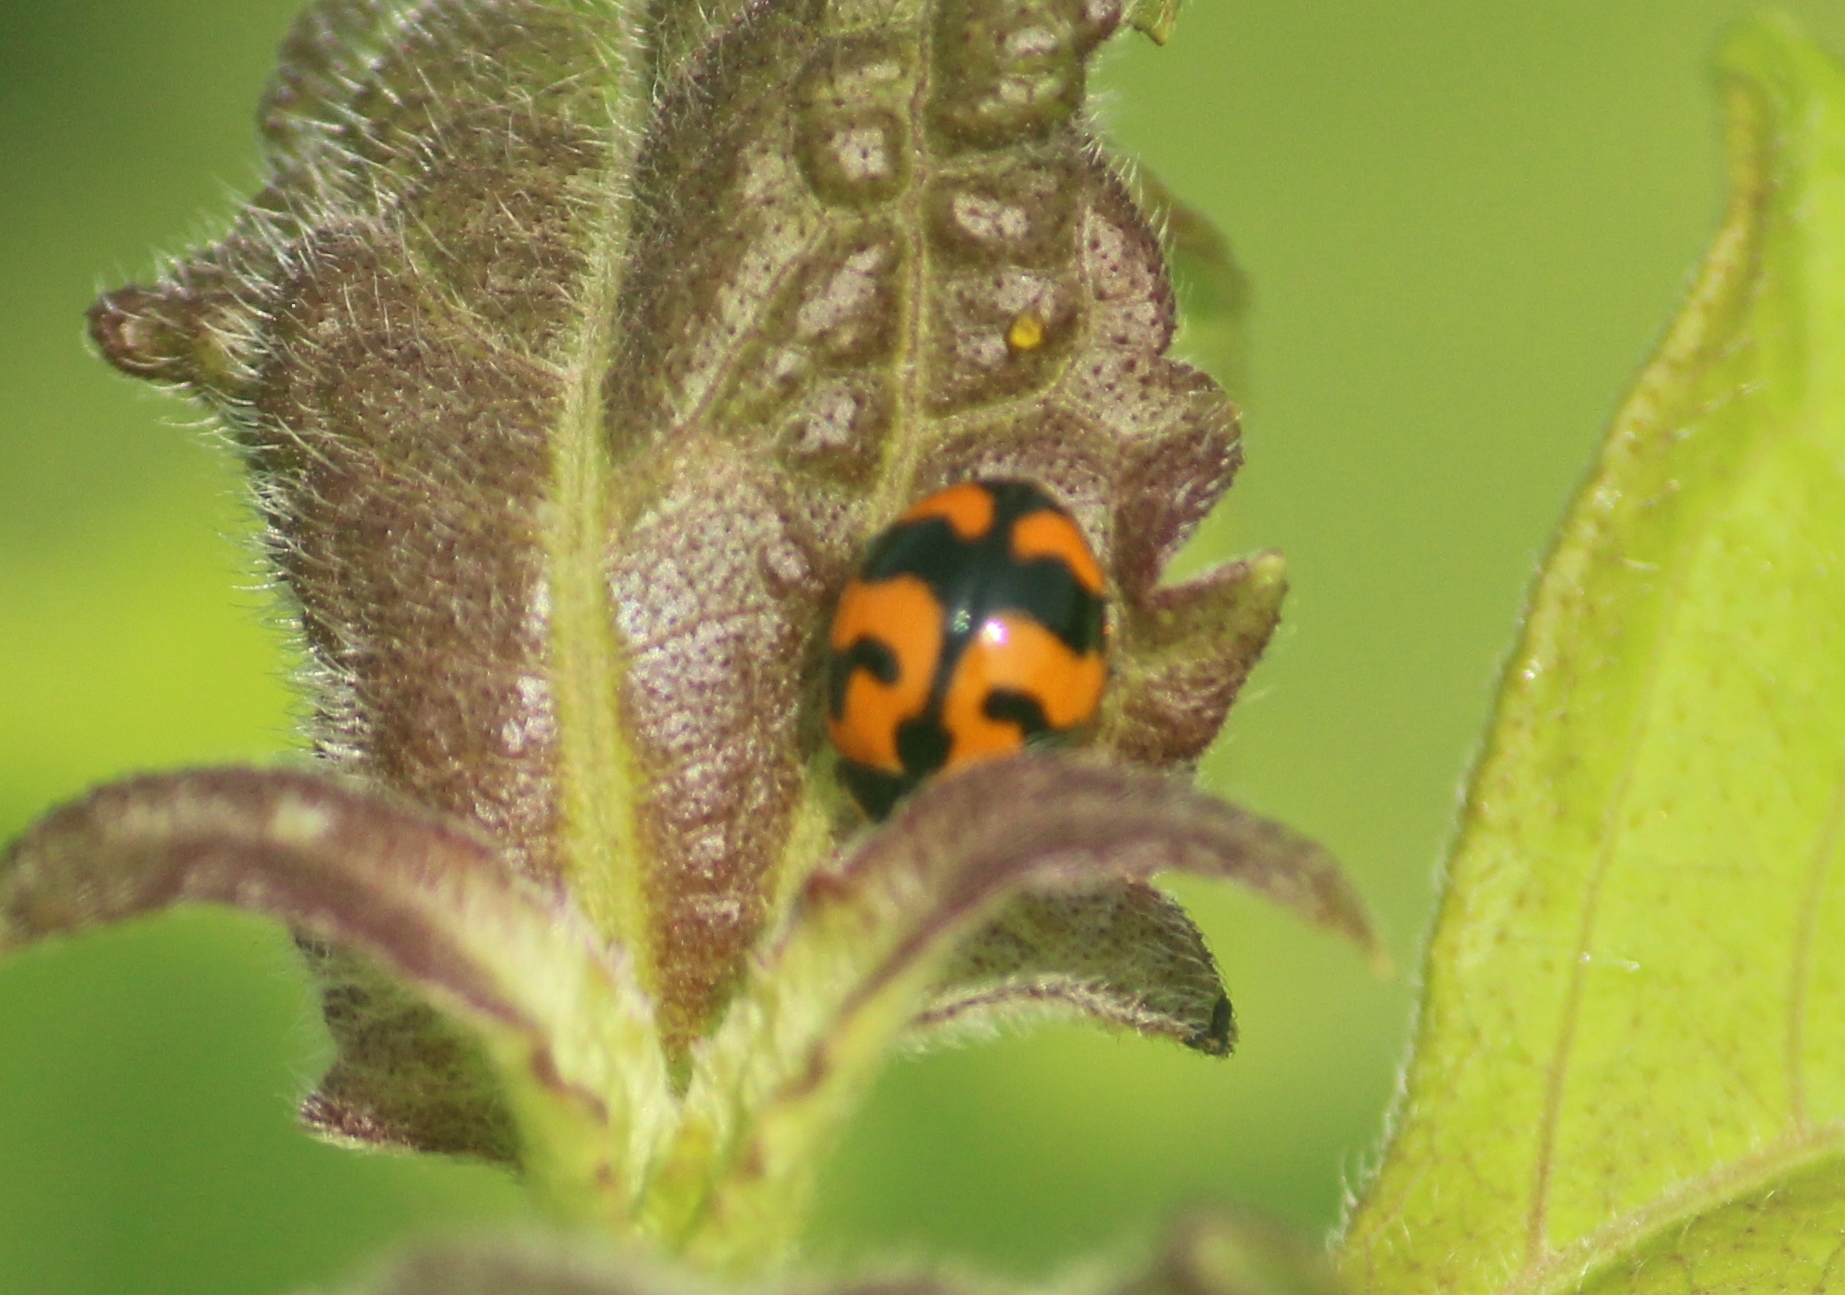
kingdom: Animalia
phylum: Arthropoda
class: Insecta
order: Coleoptera
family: Coccinellidae
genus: Coccinella
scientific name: Coccinella transversalis
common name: Transverse lady beetle
